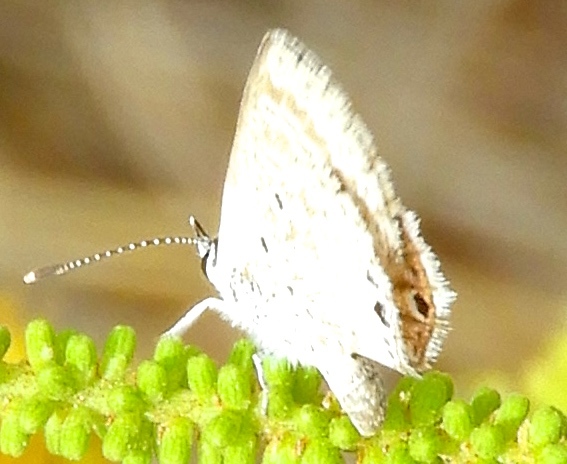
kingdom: Animalia
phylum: Arthropoda
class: Insecta
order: Lepidoptera
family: Lycaenidae
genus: Hemiargus
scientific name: Hemiargus ceraunus
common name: Ceraunus blue
